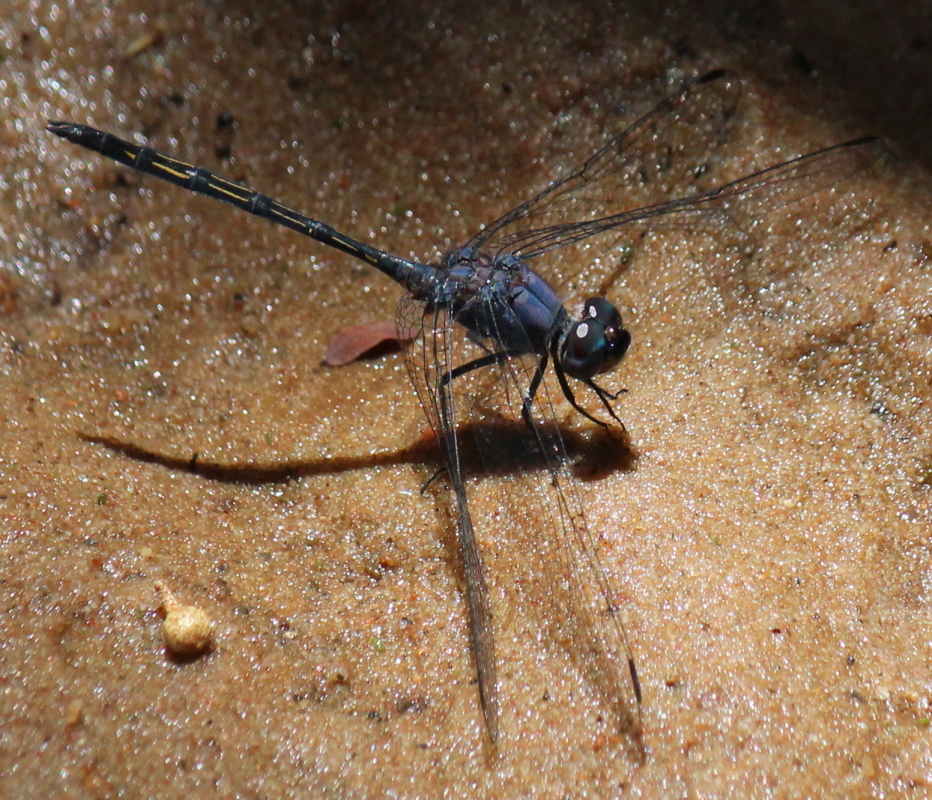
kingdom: Animalia
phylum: Arthropoda
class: Insecta
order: Odonata
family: Libellulidae
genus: Trithemis
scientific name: Trithemis aconita
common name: Halfshade dropwing
